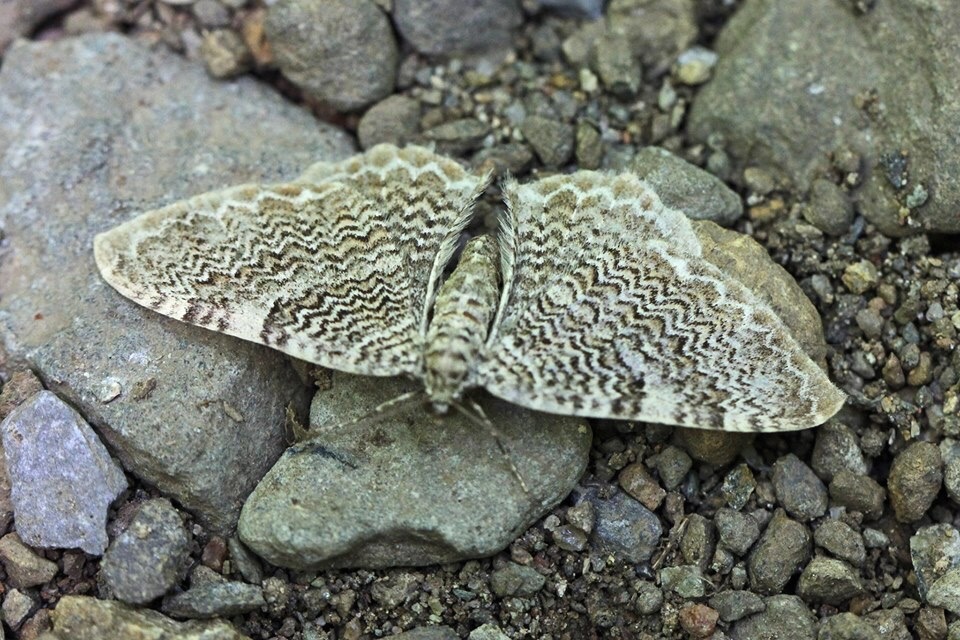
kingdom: Animalia
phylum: Arthropoda
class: Insecta
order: Lepidoptera
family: Geometridae
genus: Rheumaptera
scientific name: Rheumaptera prunivorata
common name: Cherry scallop shell moth
